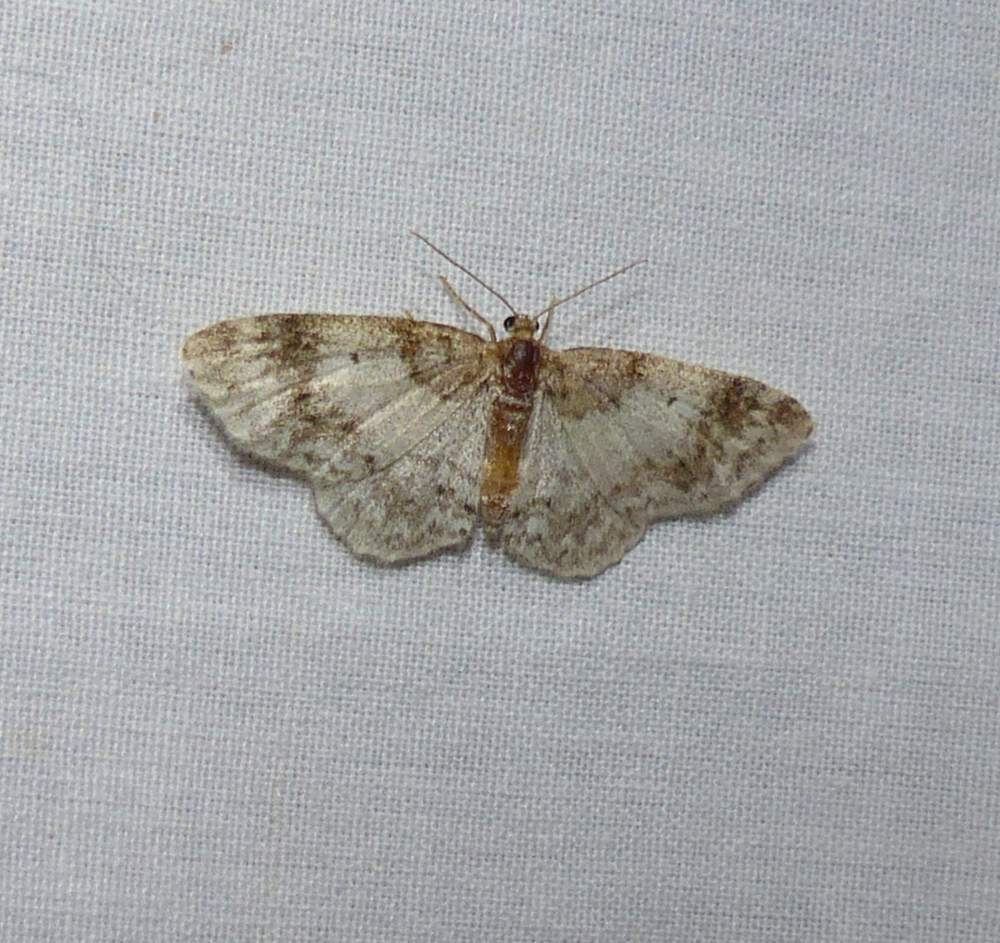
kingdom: Animalia
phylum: Arthropoda
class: Insecta
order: Lepidoptera
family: Geometridae
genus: Hydrelia
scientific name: Hydrelia inornata
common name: Unadorned carpet moth
